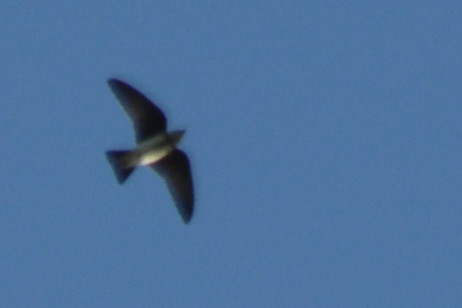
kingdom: Animalia
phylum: Chordata
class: Aves
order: Passeriformes
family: Hirundinidae
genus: Progne
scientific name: Progne tapera
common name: Brown-chested martin
